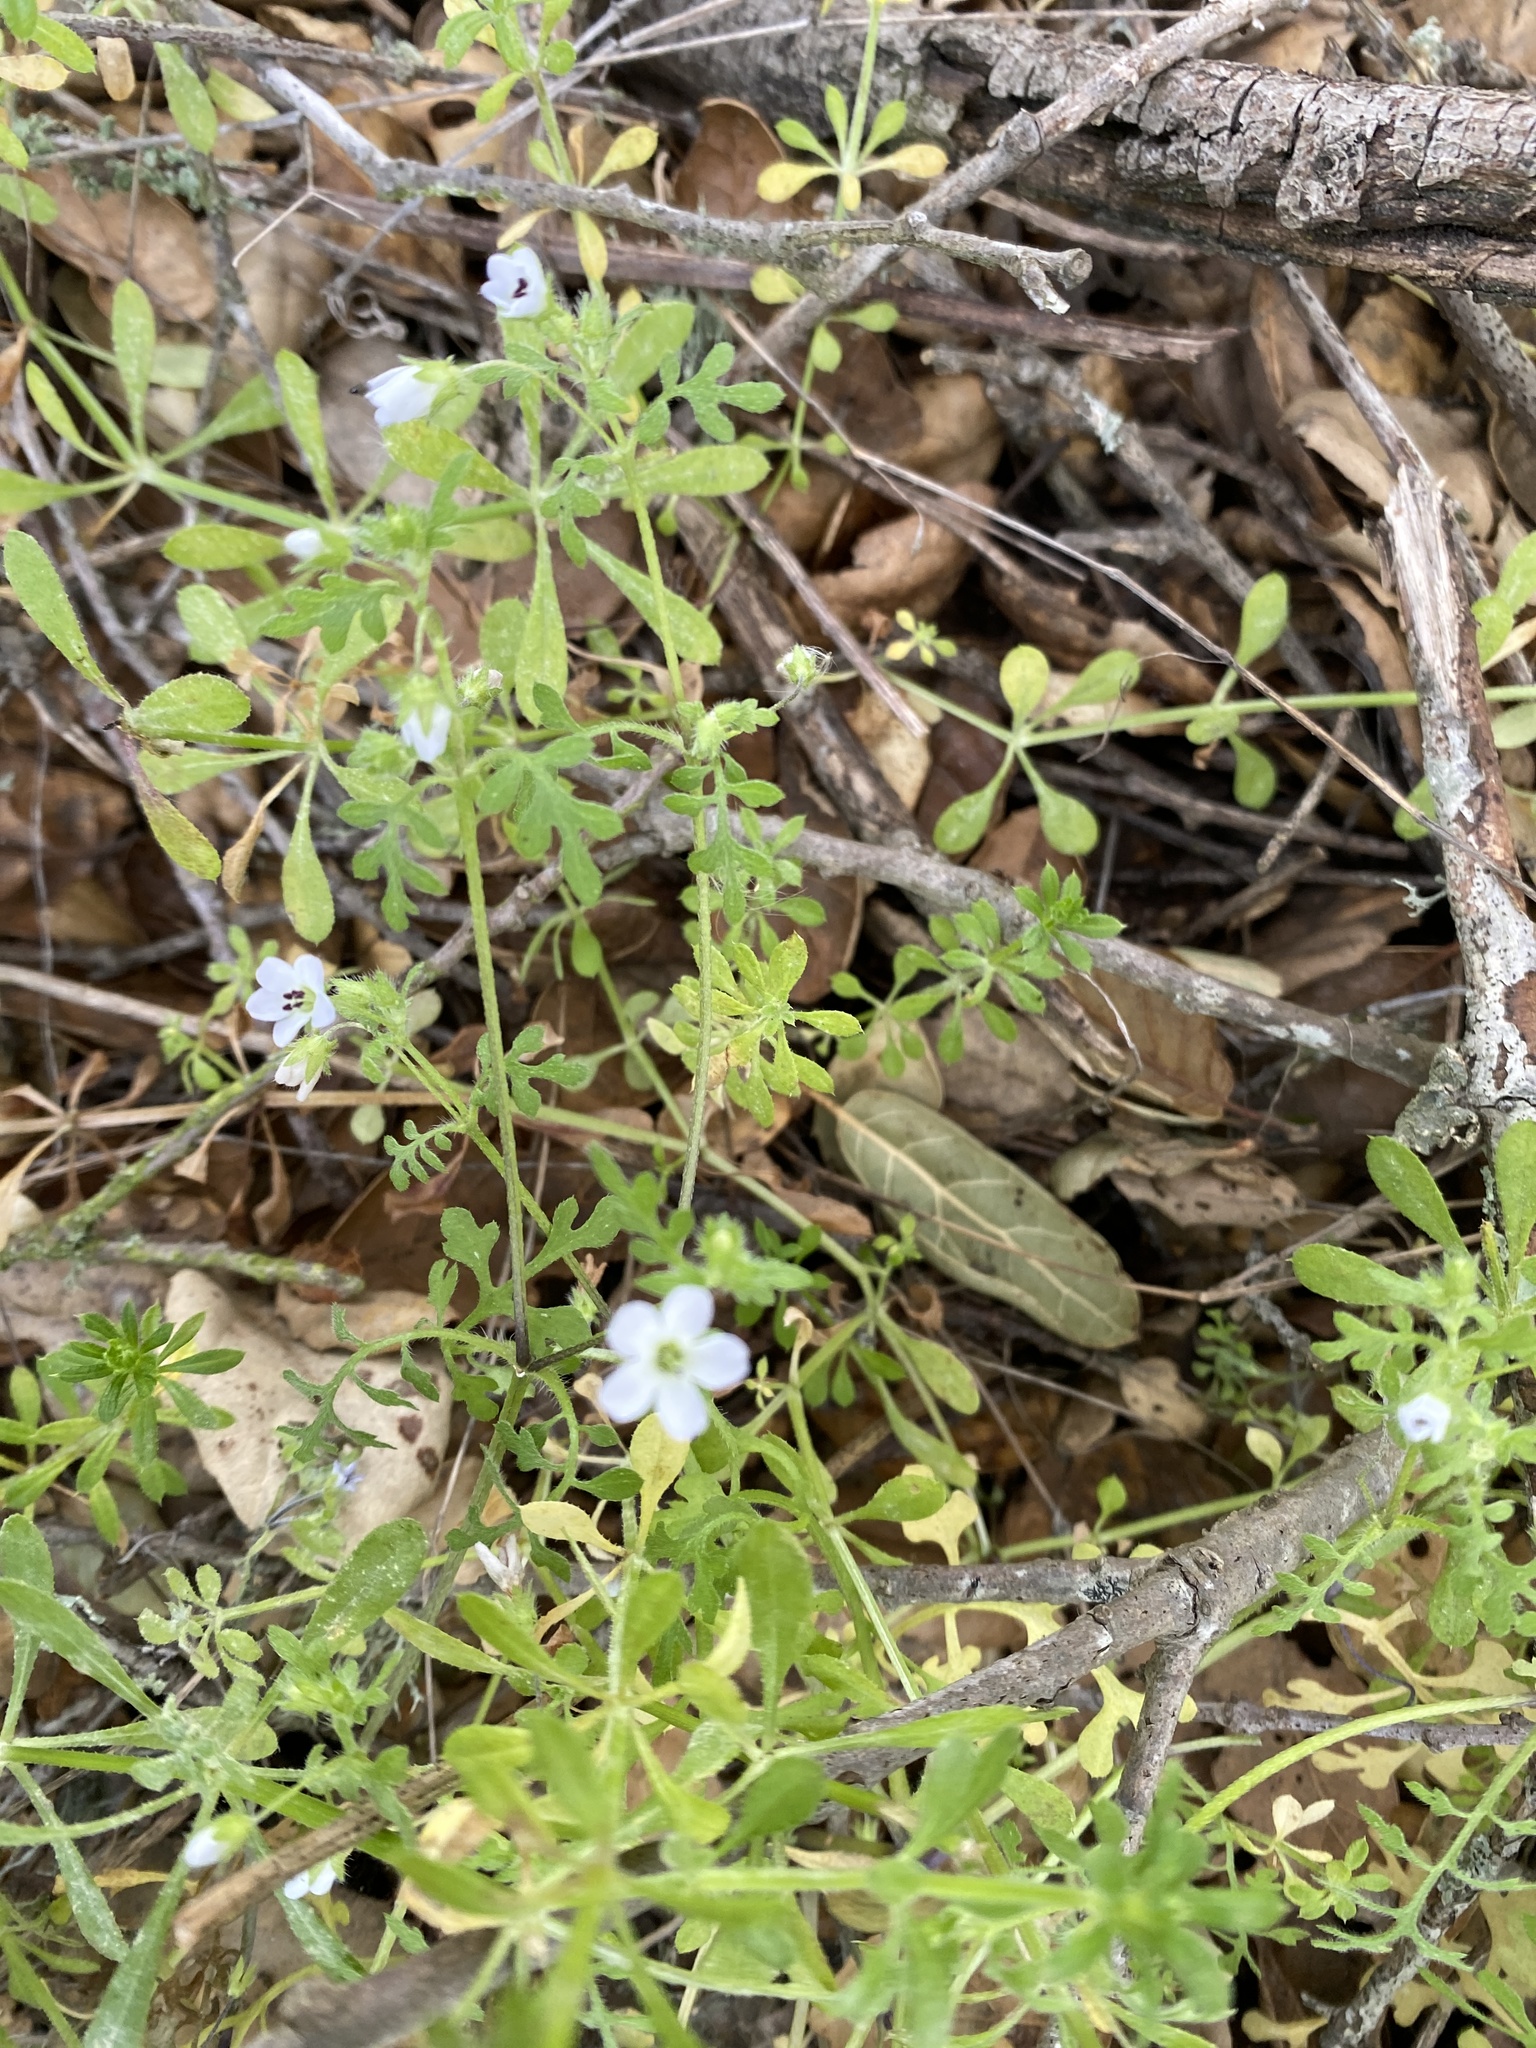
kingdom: Plantae
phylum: Tracheophyta
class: Magnoliopsida
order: Boraginales
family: Hydrophyllaceae
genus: Nemophila
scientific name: Nemophila heterophylla
